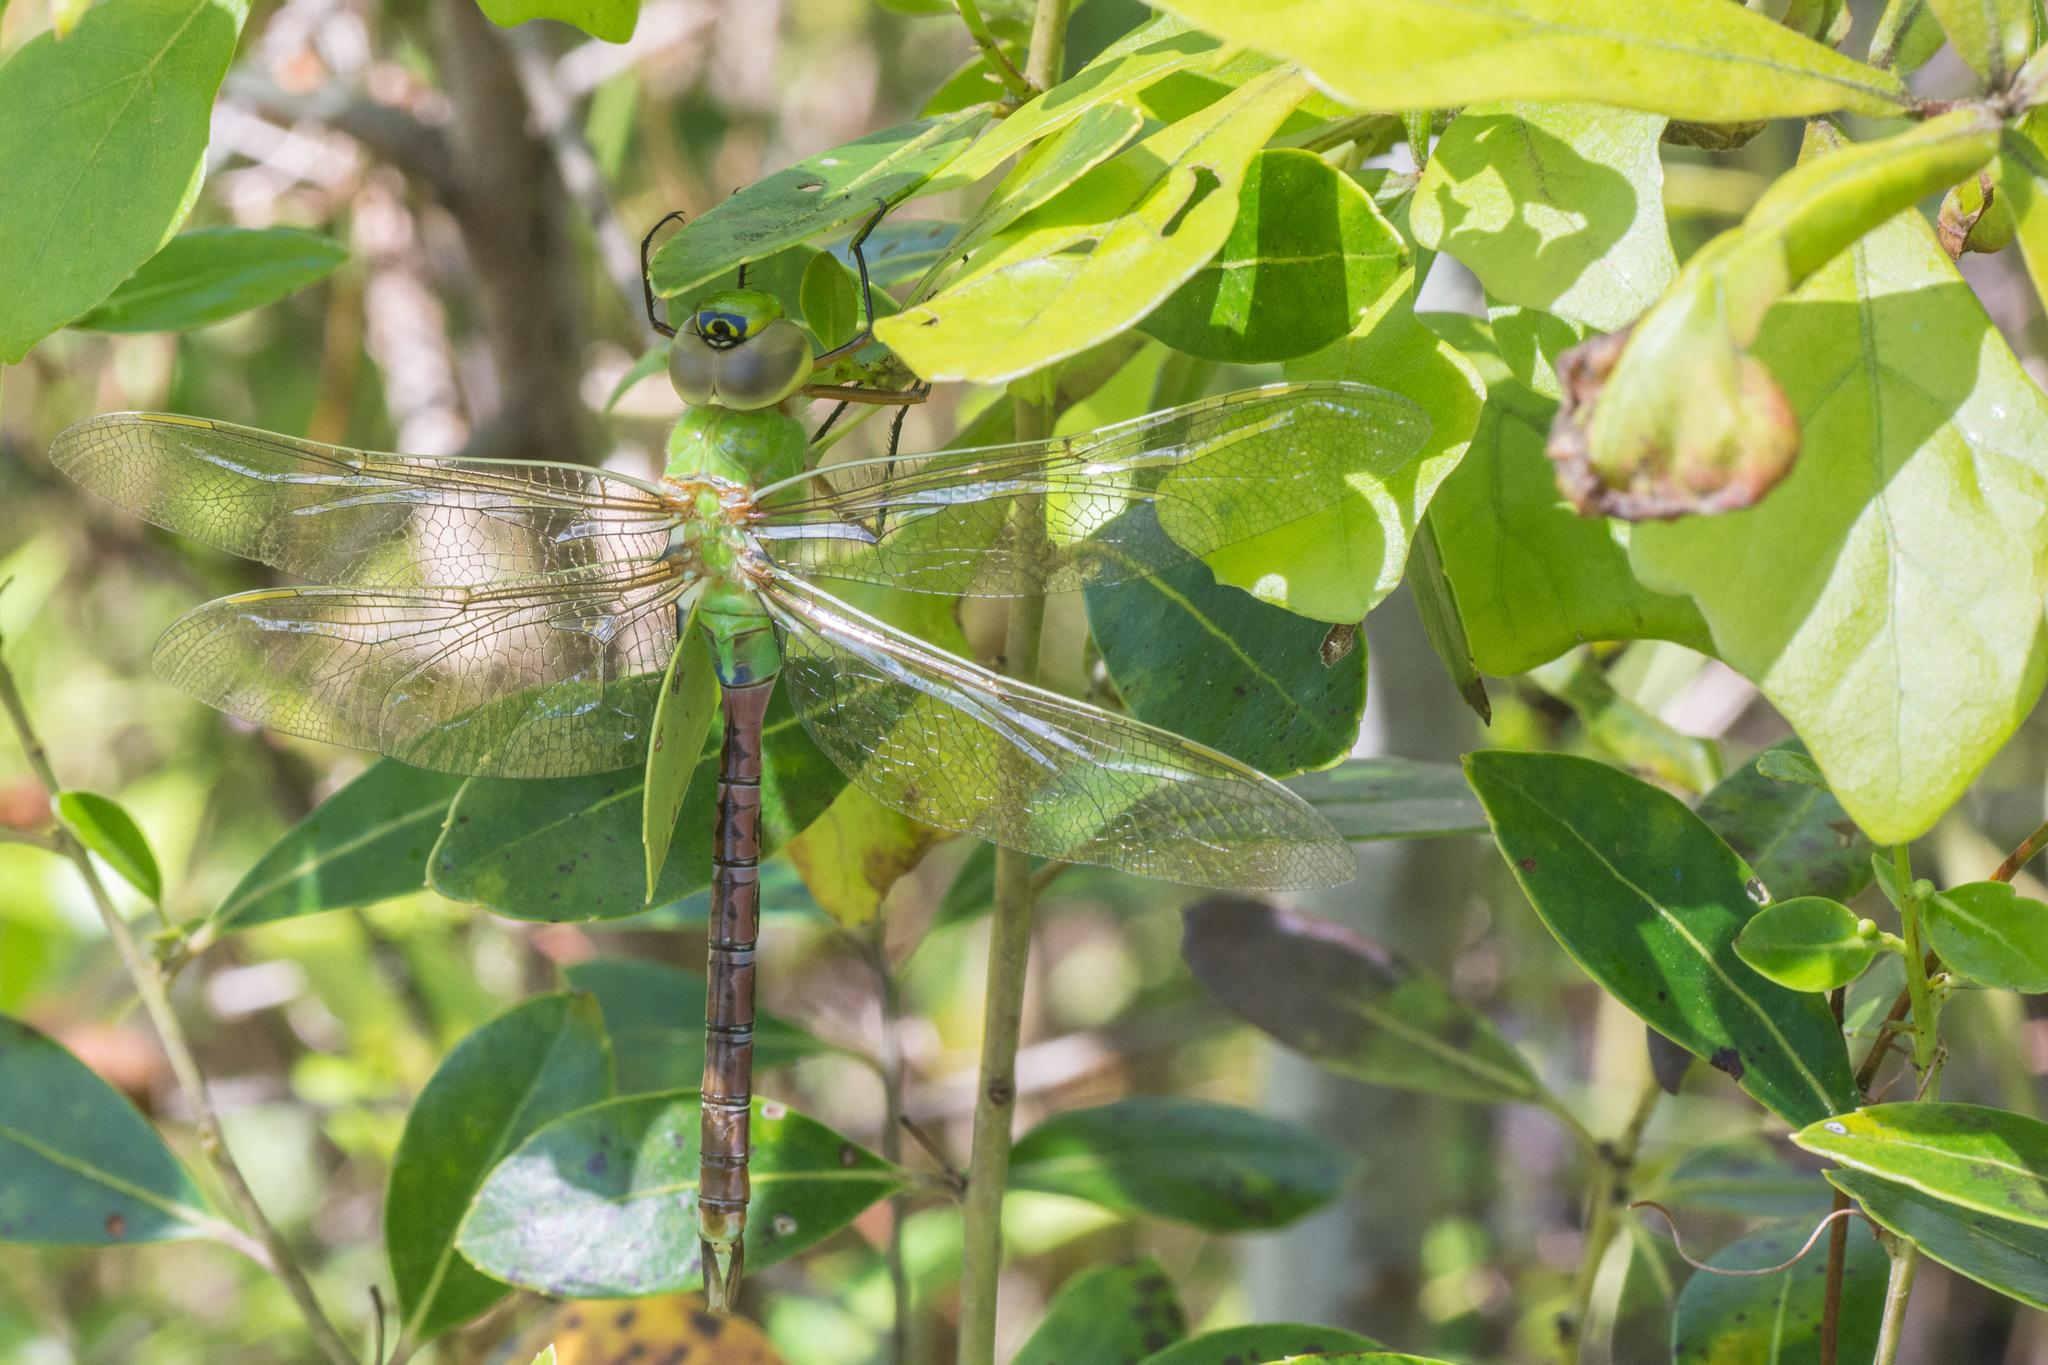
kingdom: Animalia
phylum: Arthropoda
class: Insecta
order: Odonata
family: Aeshnidae
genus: Anax
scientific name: Anax junius
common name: Common green darner
